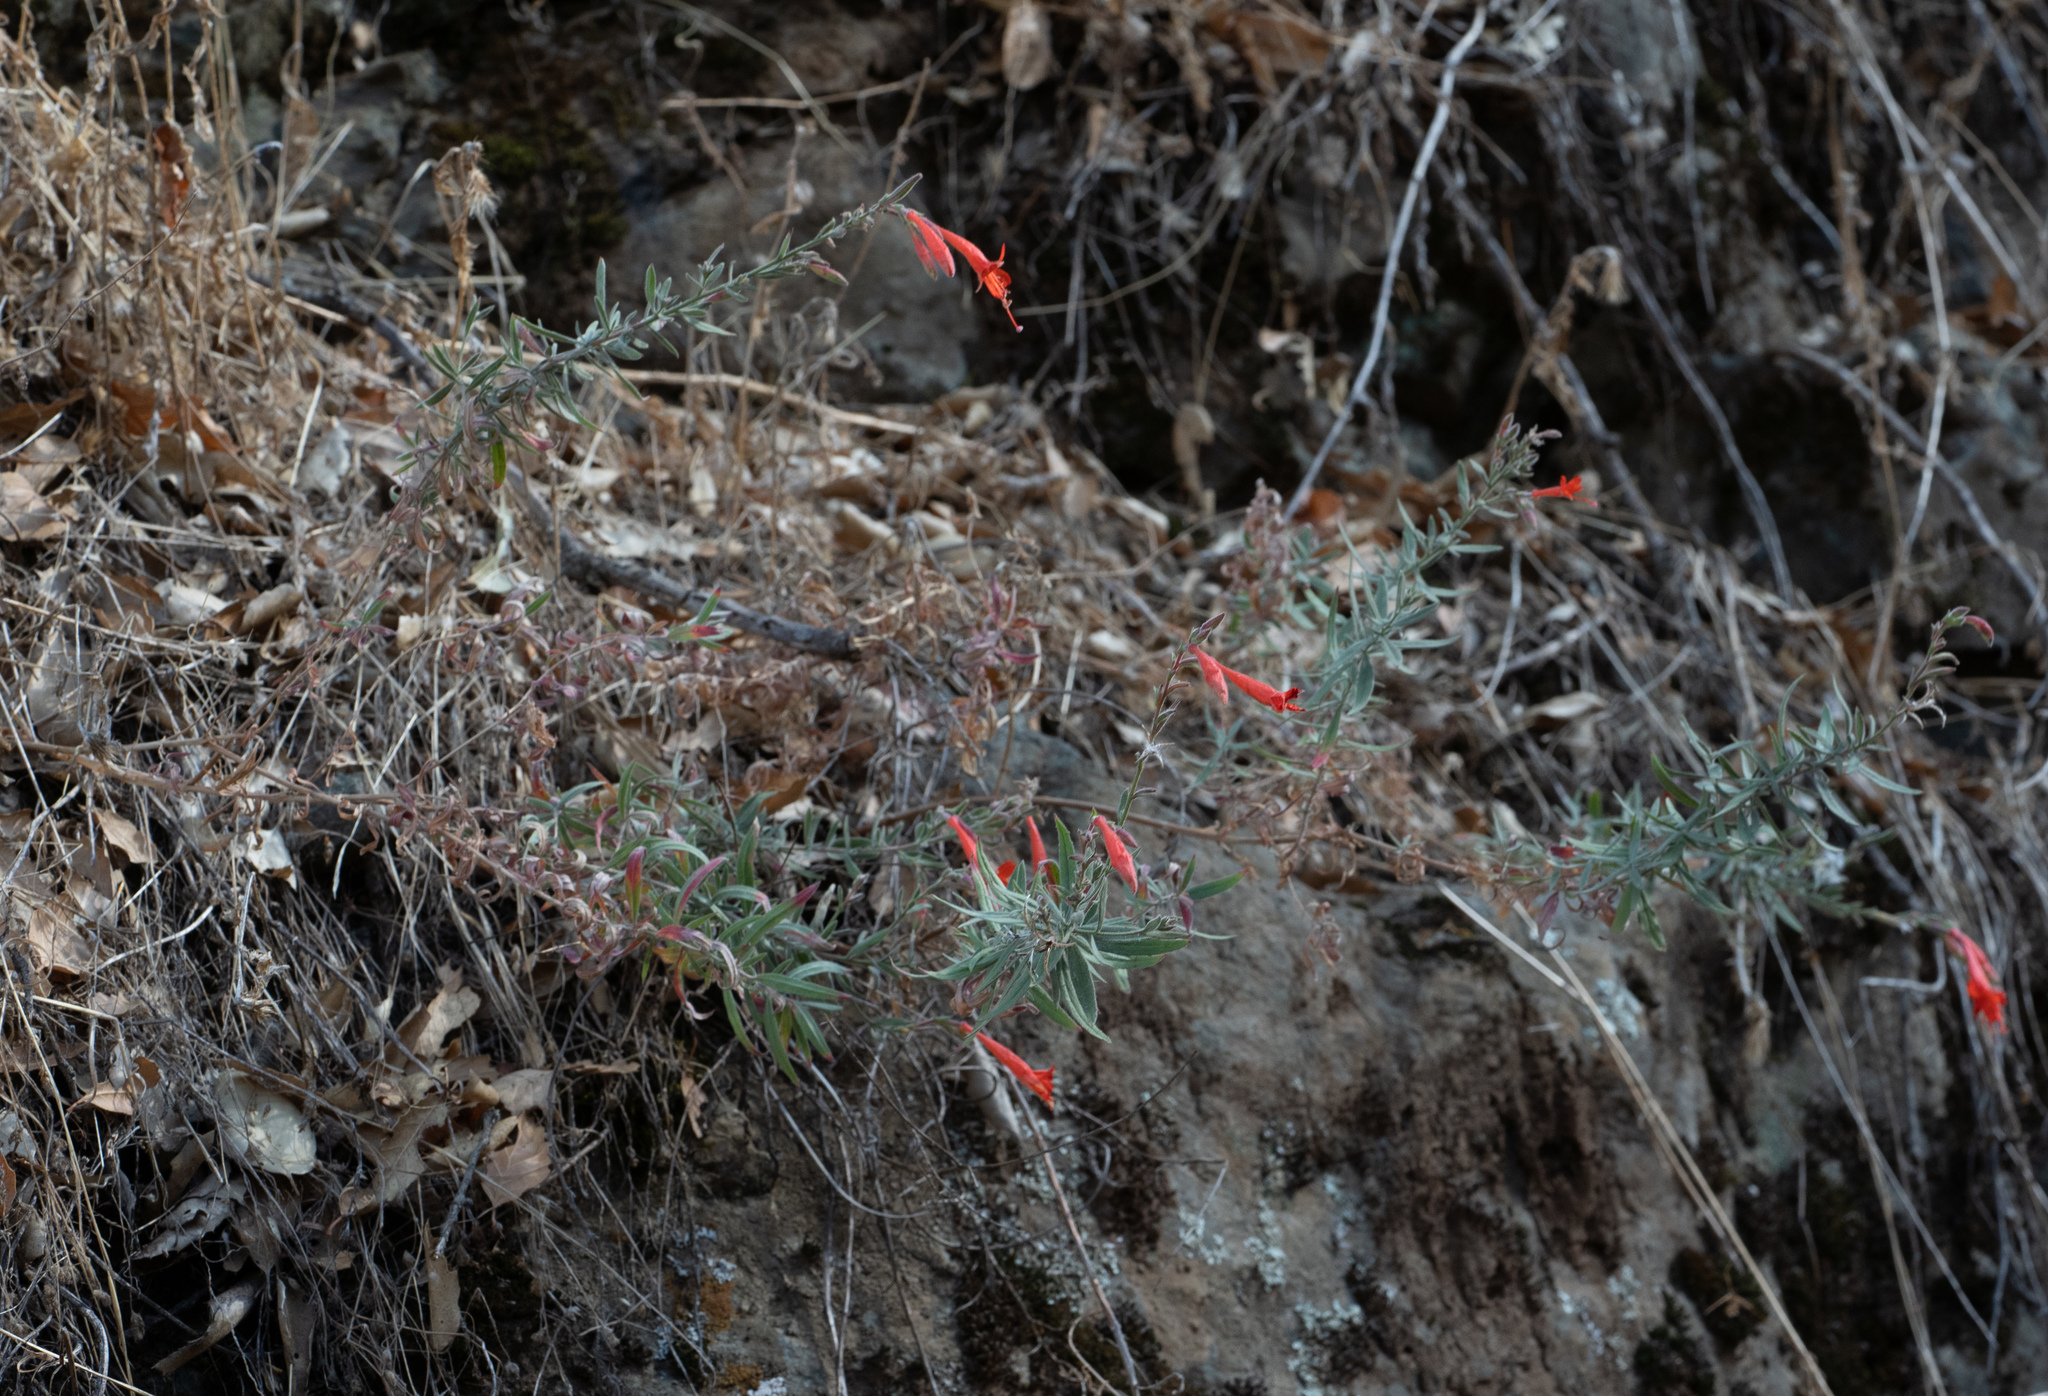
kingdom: Plantae
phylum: Tracheophyta
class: Magnoliopsida
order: Myrtales
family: Onagraceae
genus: Epilobium
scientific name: Epilobium canum
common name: California-fuchsia
